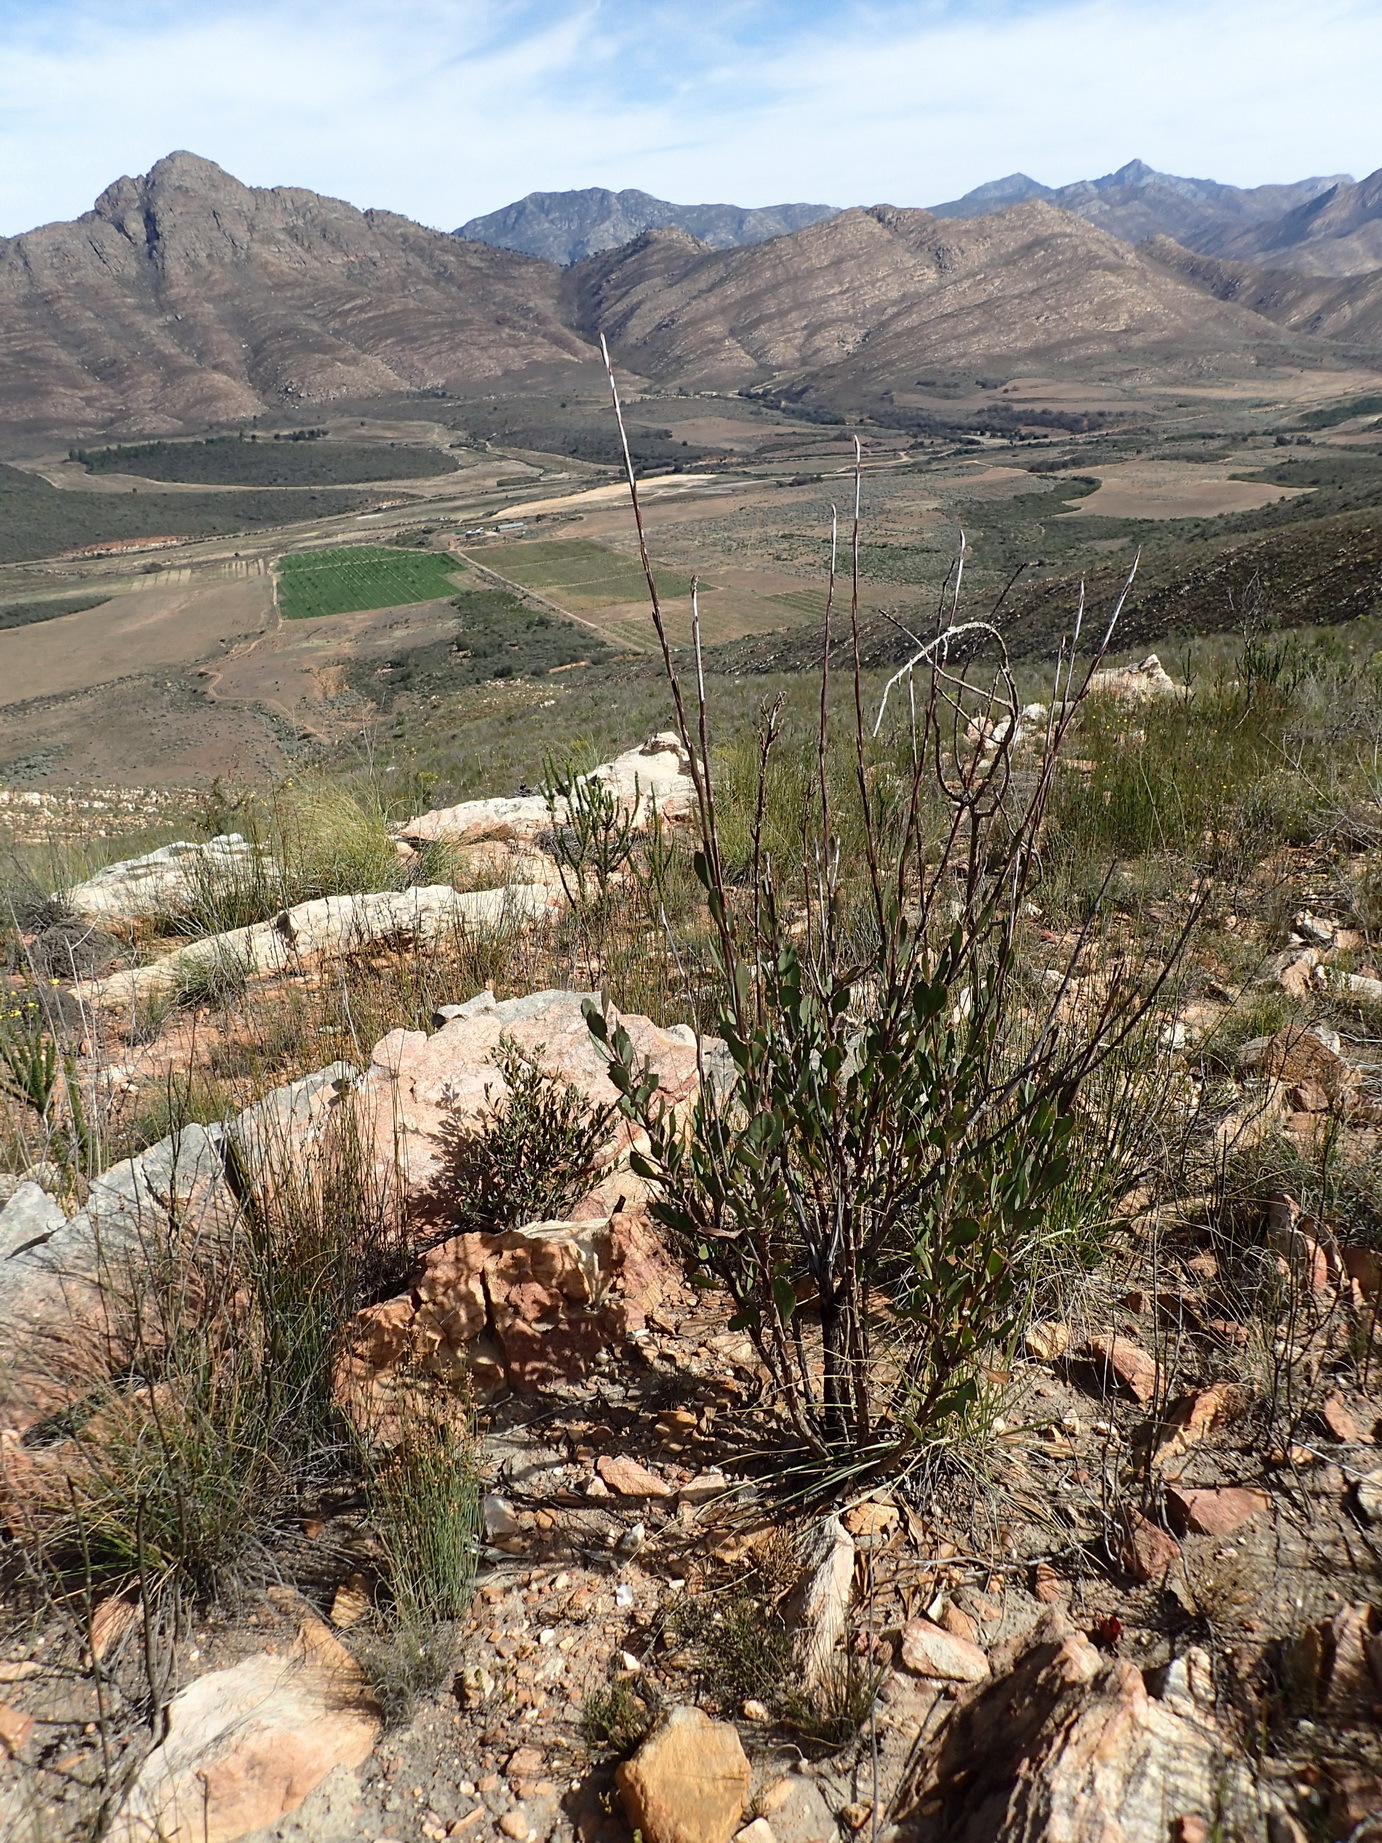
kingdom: Plantae
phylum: Tracheophyta
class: Magnoliopsida
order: Asterales
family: Asteraceae
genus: Osteospermum
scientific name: Osteospermum junceum
